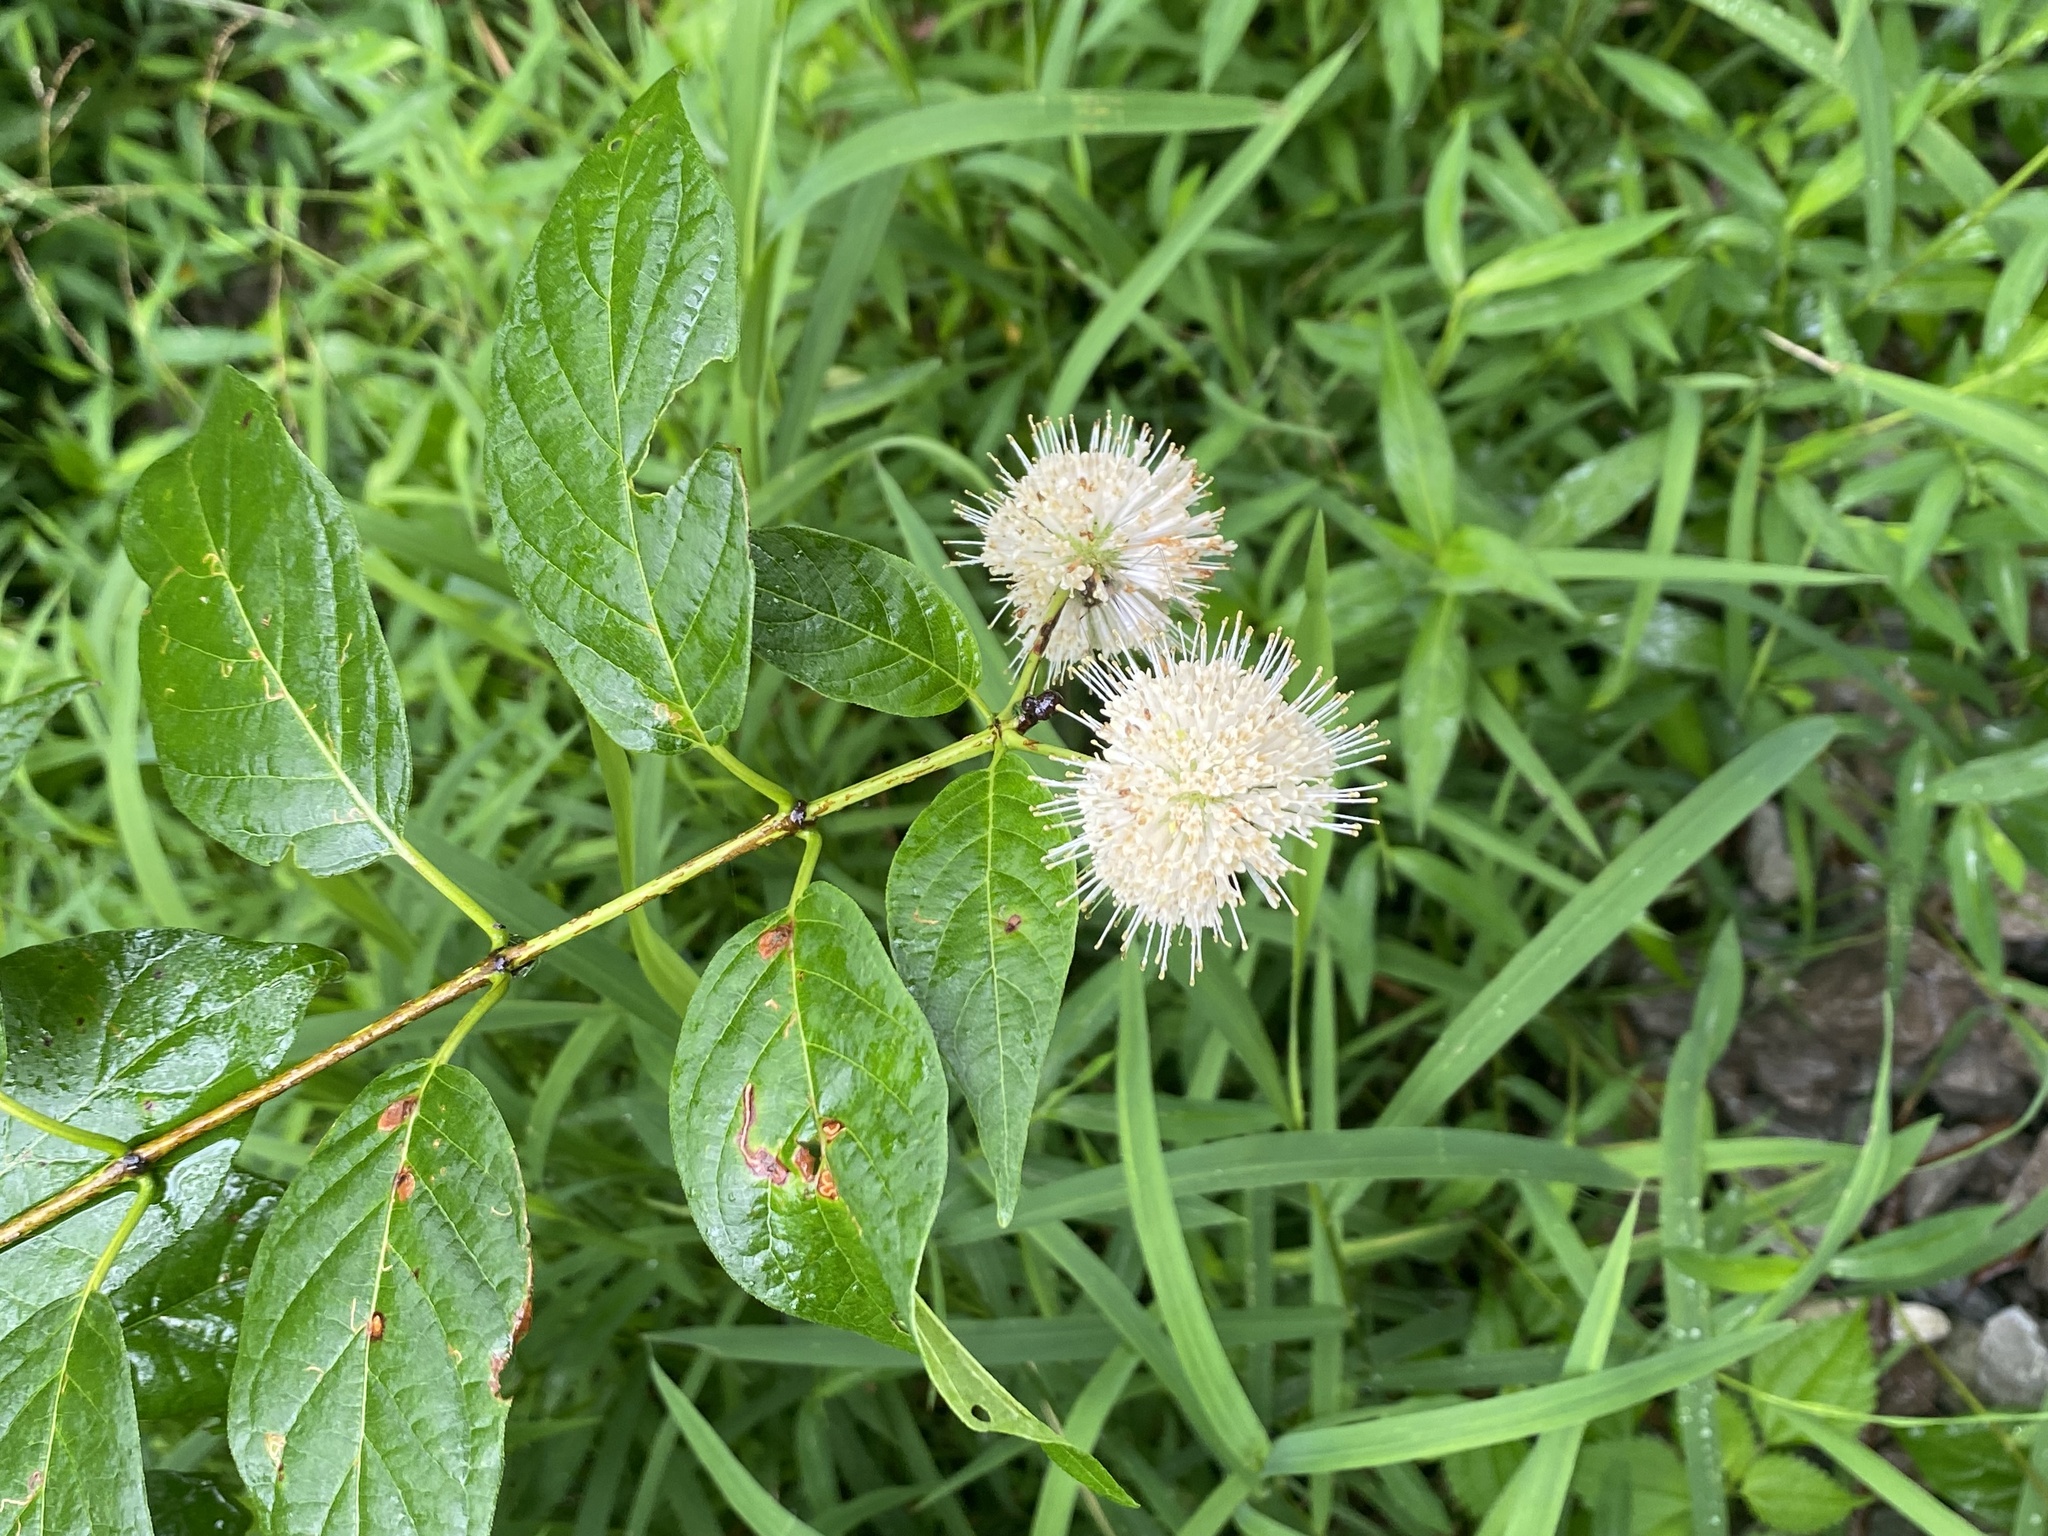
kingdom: Plantae
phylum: Tracheophyta
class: Magnoliopsida
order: Gentianales
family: Rubiaceae
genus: Cephalanthus
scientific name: Cephalanthus occidentalis
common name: Button-willow
